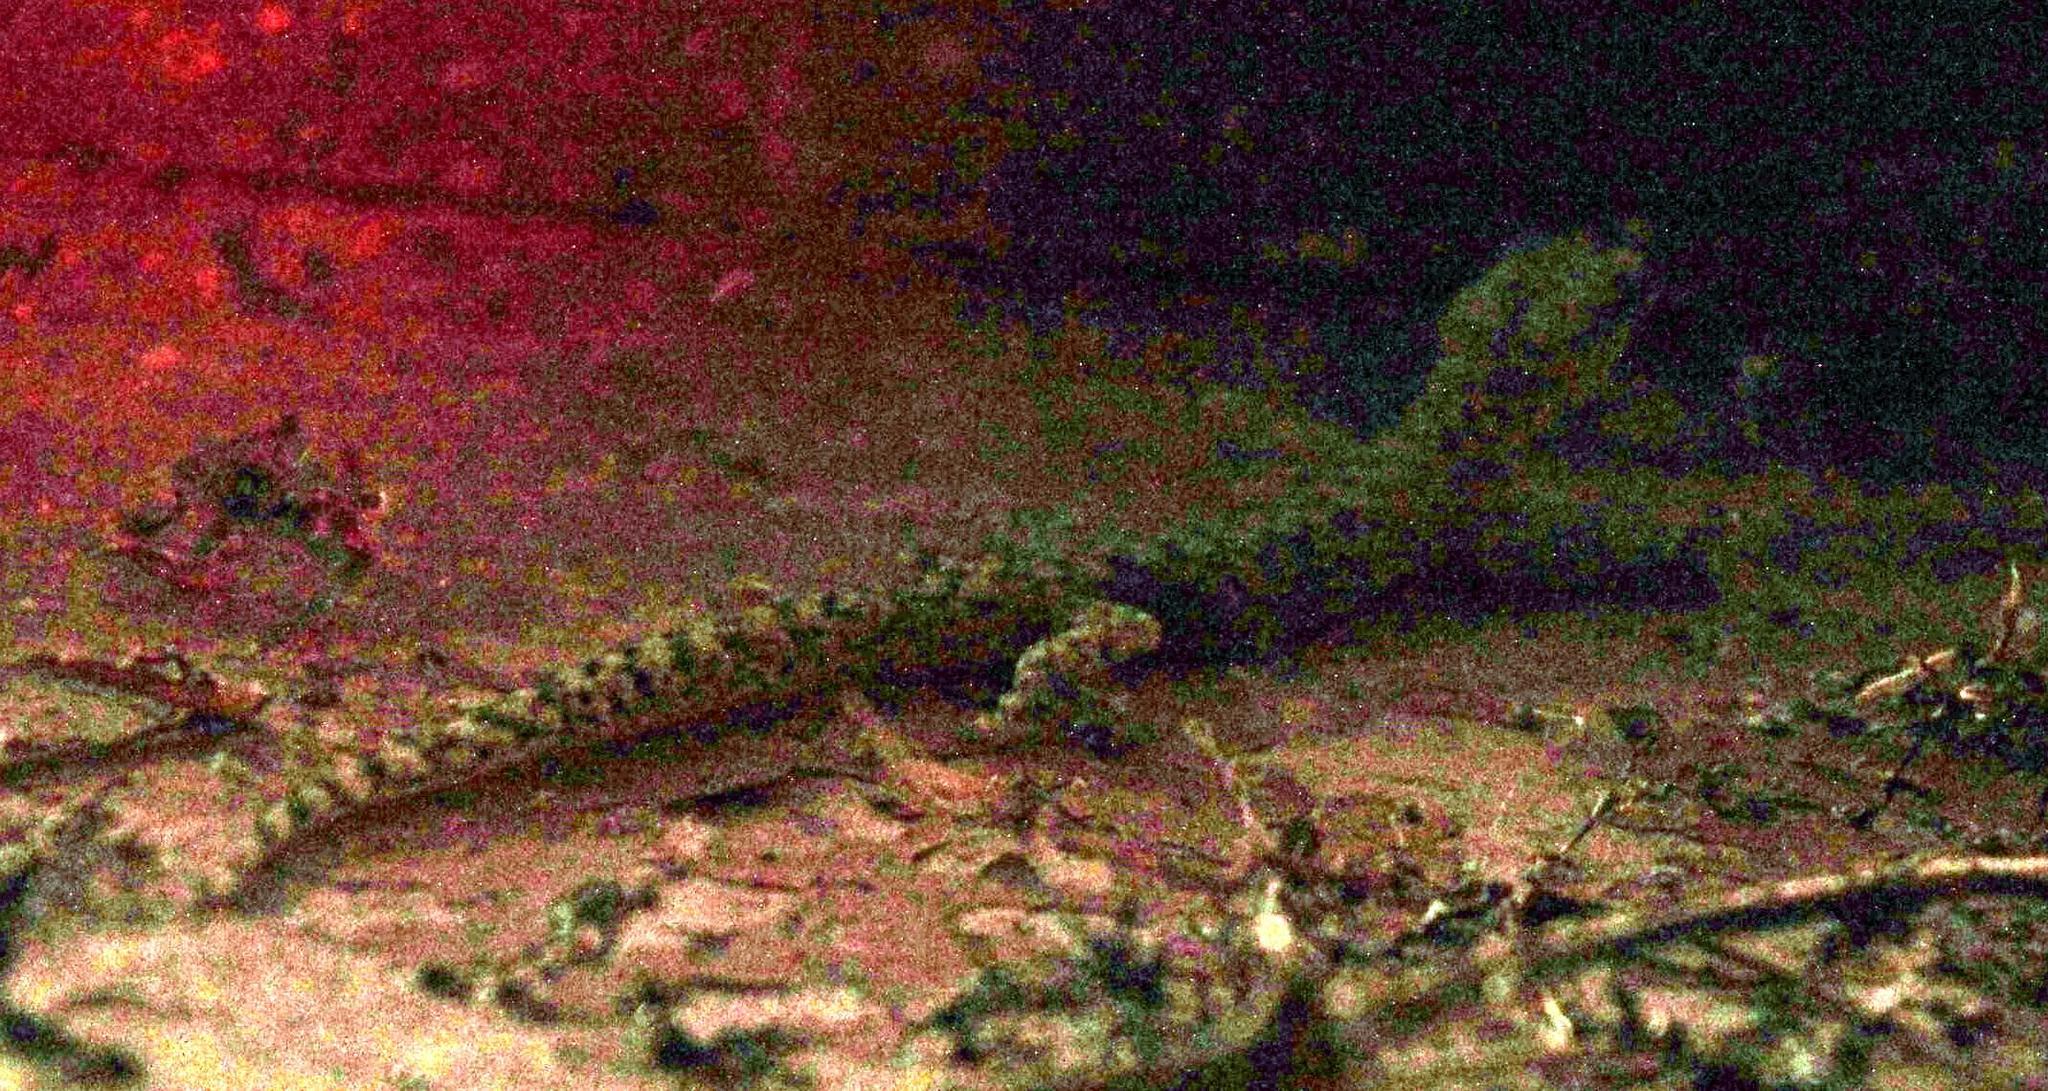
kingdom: Animalia
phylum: Chordata
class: Squamata
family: Gekkonidae
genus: Afrogecko
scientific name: Afrogecko porphyreus
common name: Marbled leaf-toed gecko
